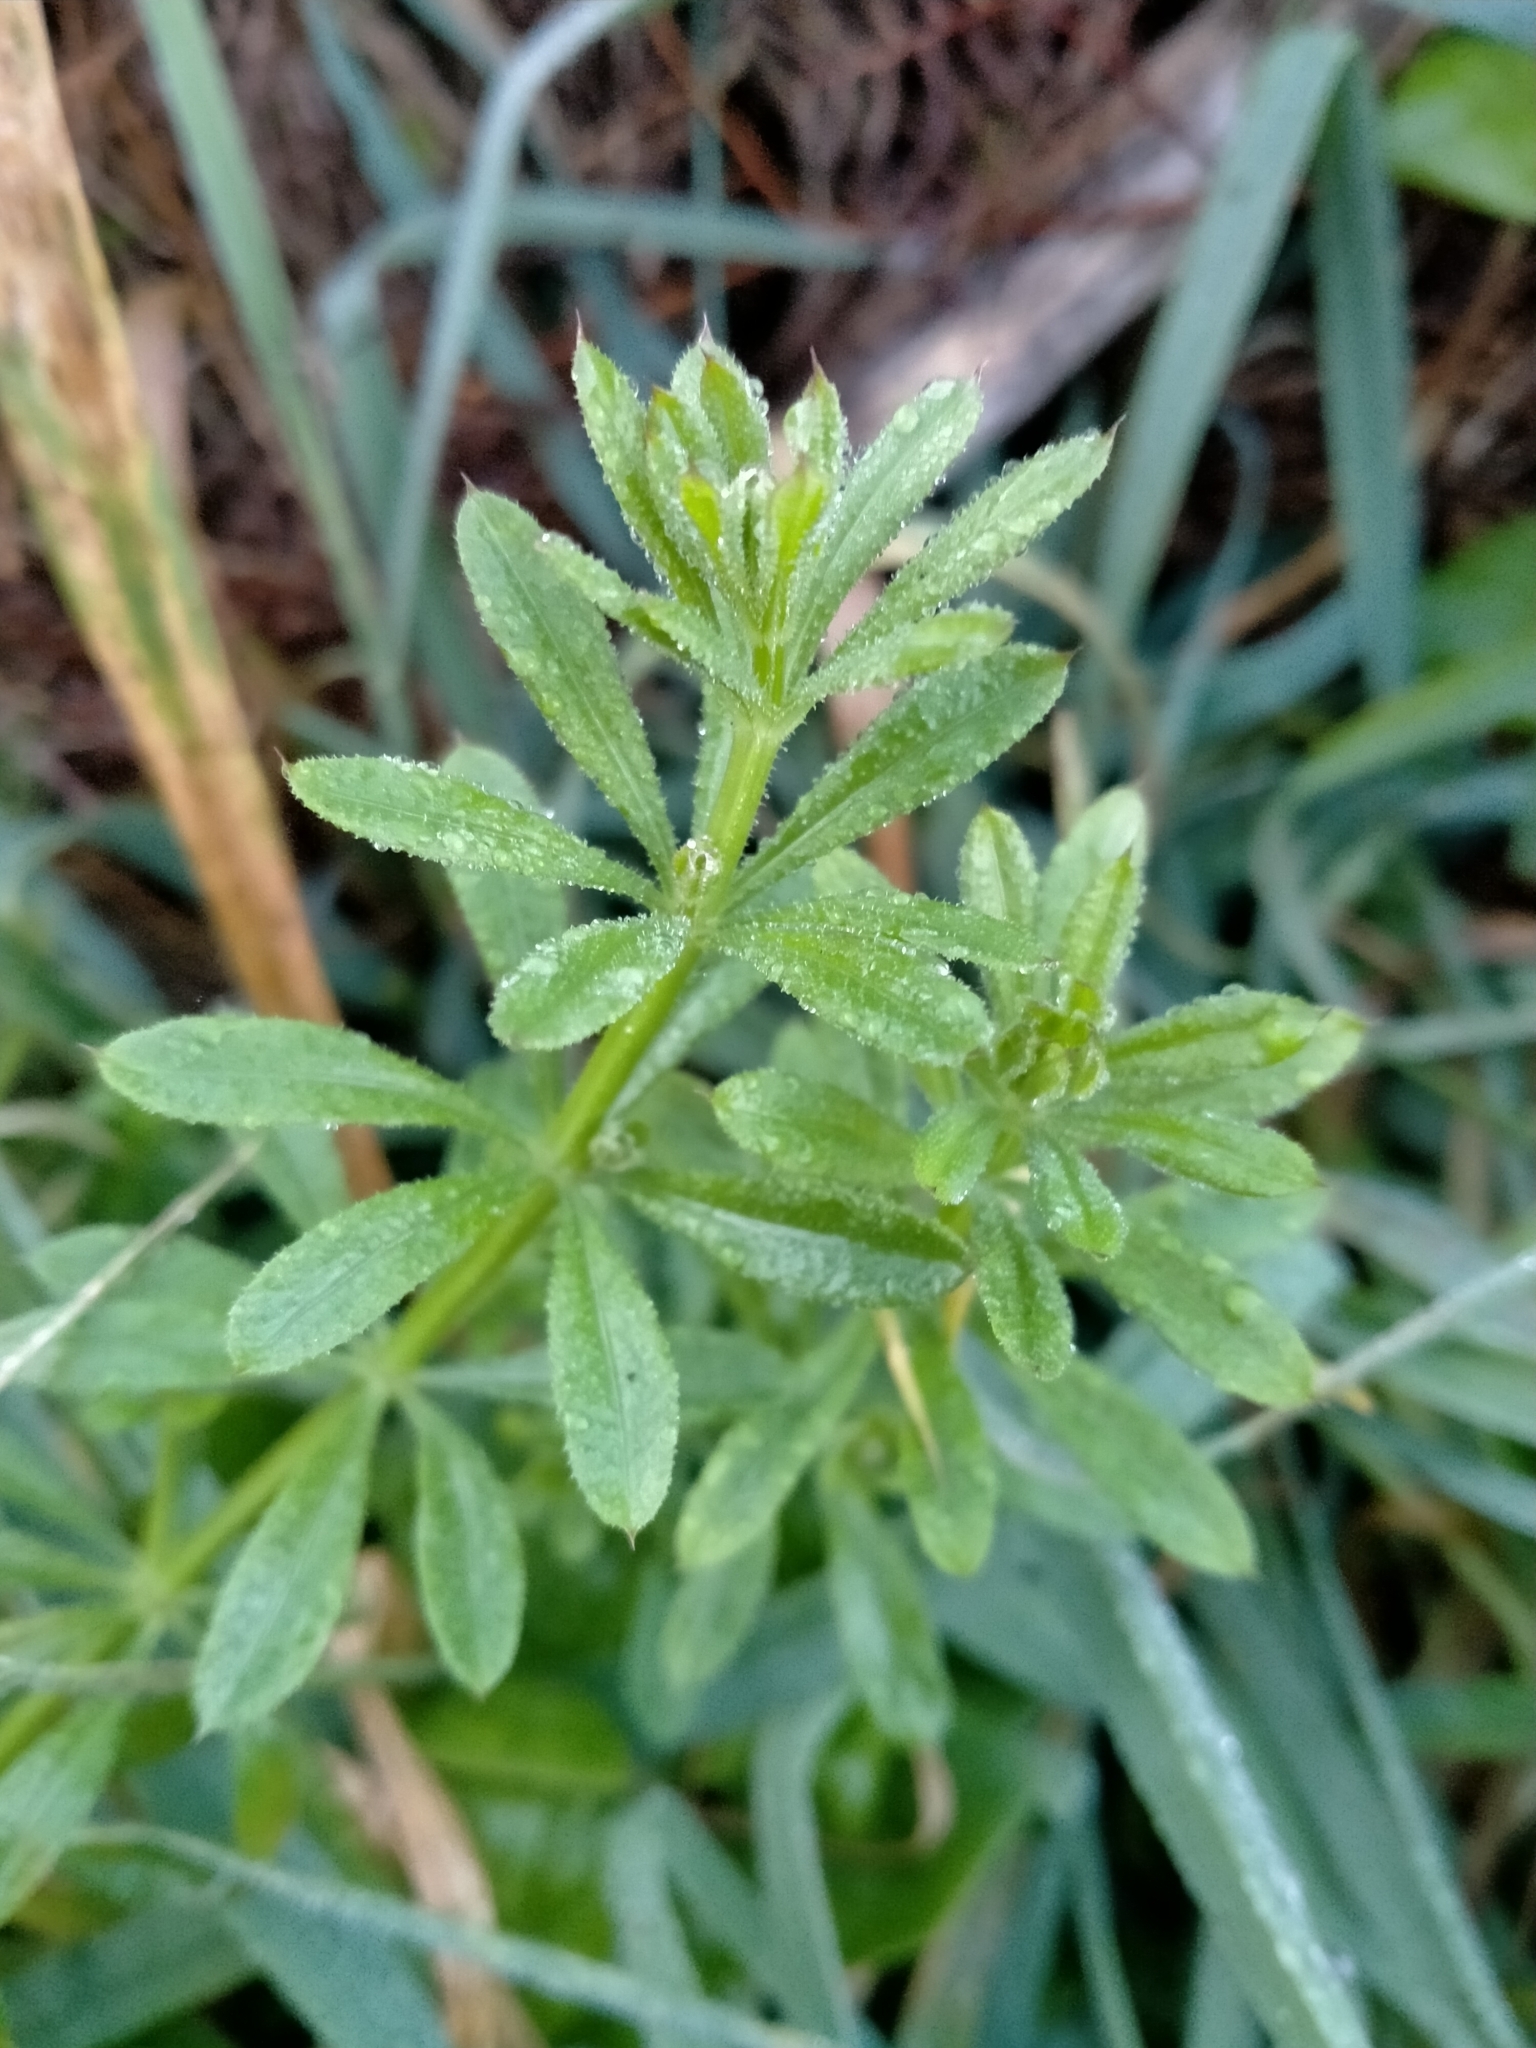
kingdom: Plantae
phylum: Tracheophyta
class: Magnoliopsida
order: Gentianales
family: Rubiaceae
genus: Galium
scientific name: Galium aparine
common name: Cleavers
